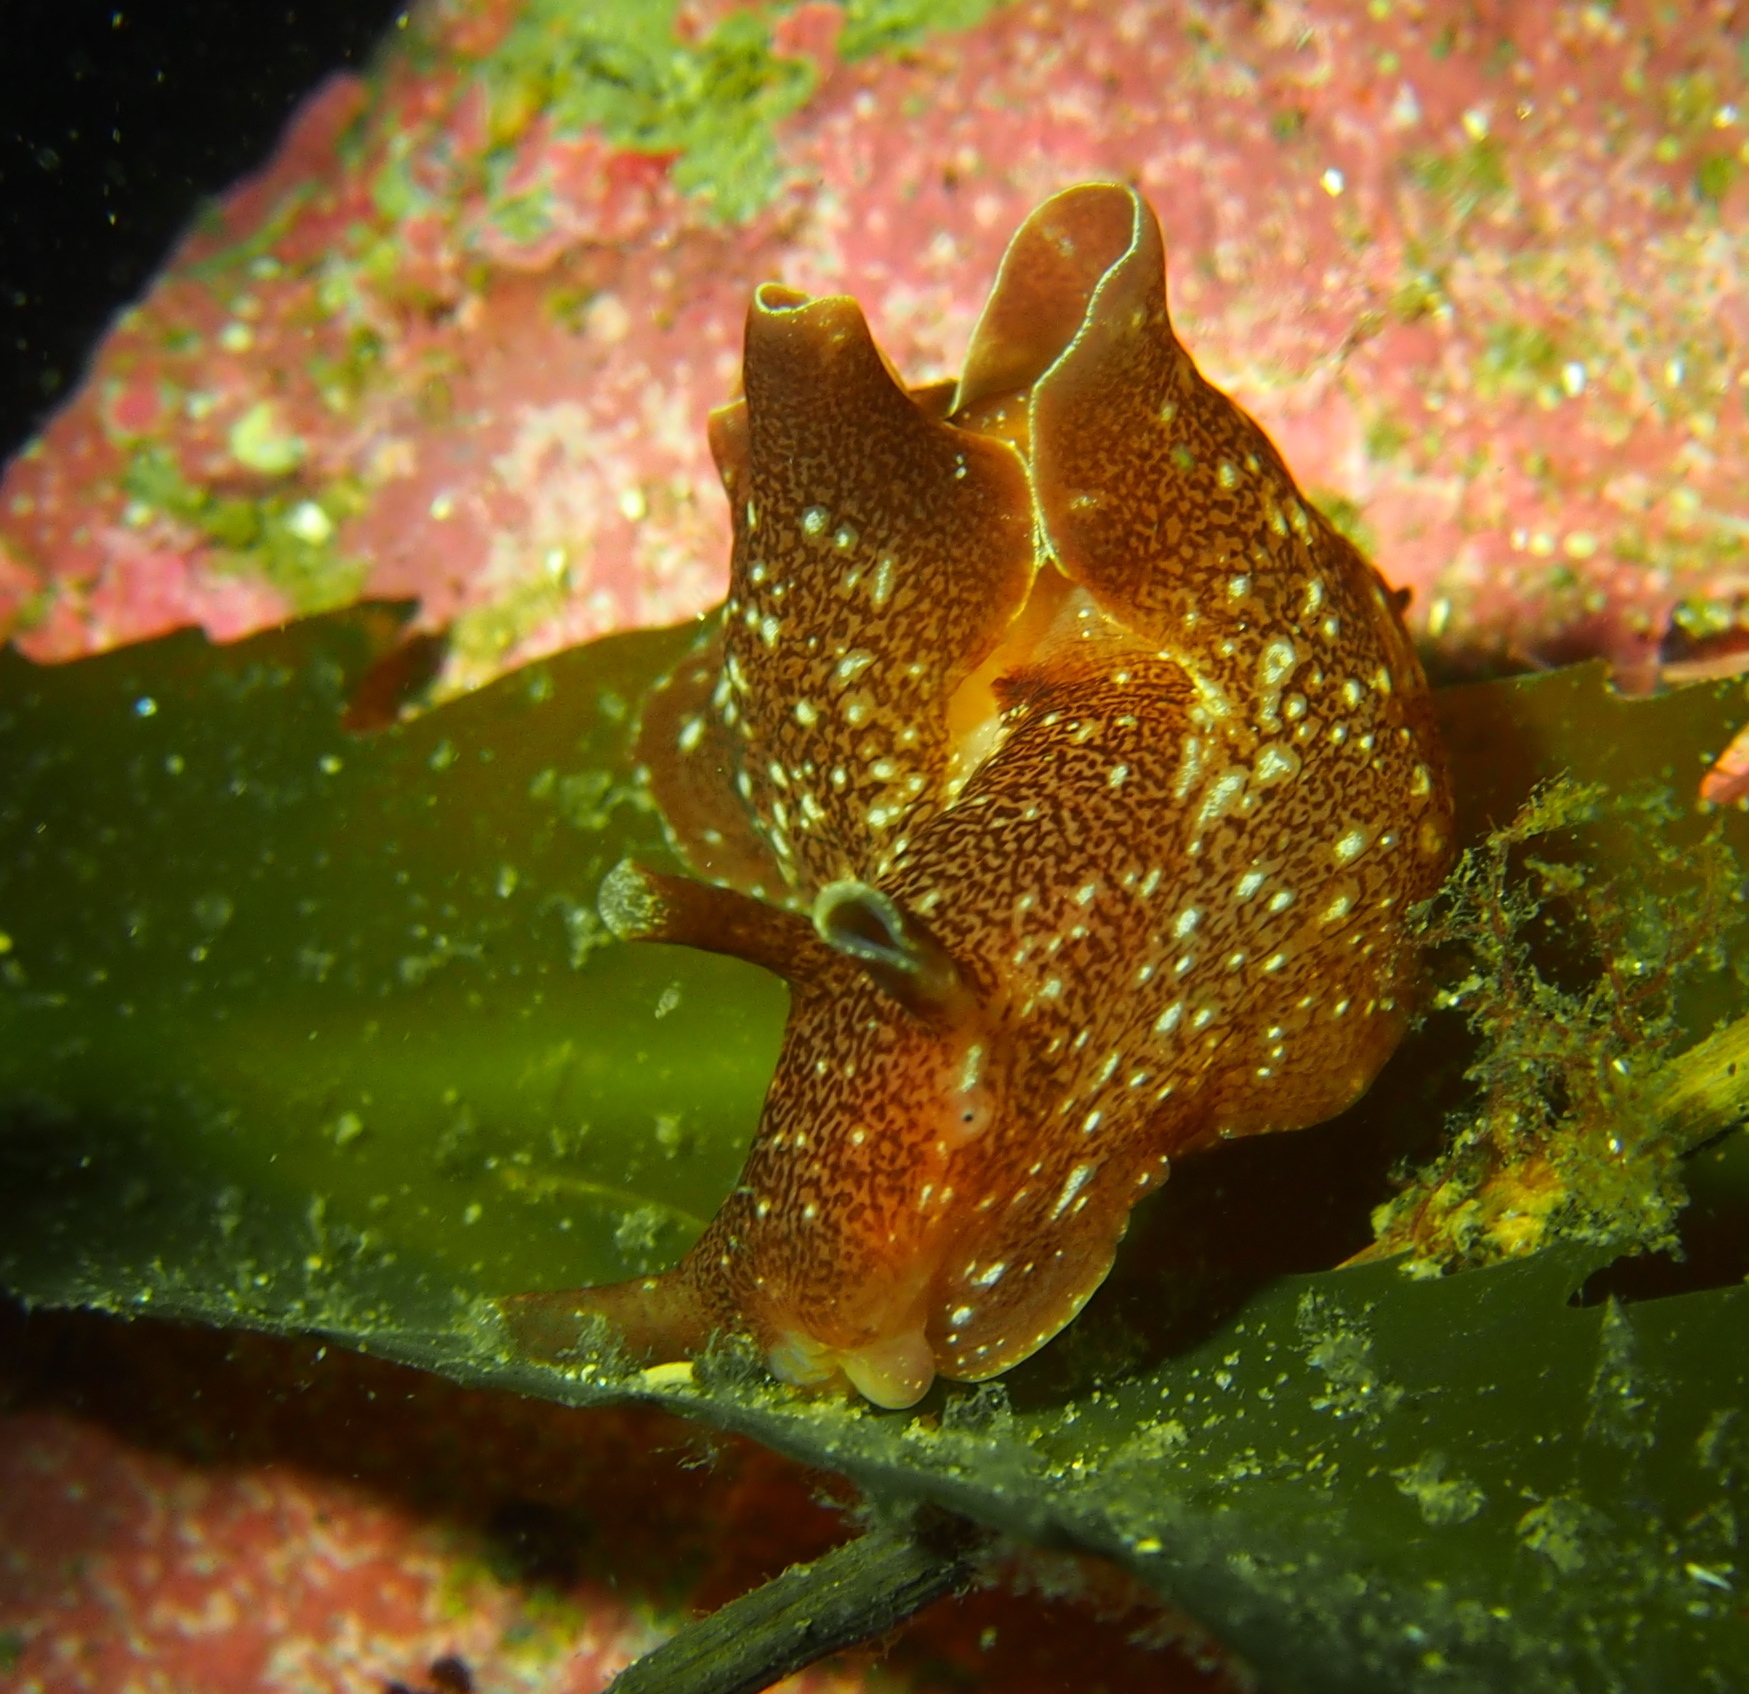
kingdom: Animalia
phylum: Mollusca
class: Gastropoda
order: Aplysiida
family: Aplysiidae
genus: Aplysia
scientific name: Aplysia punctata
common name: Common sea hare
